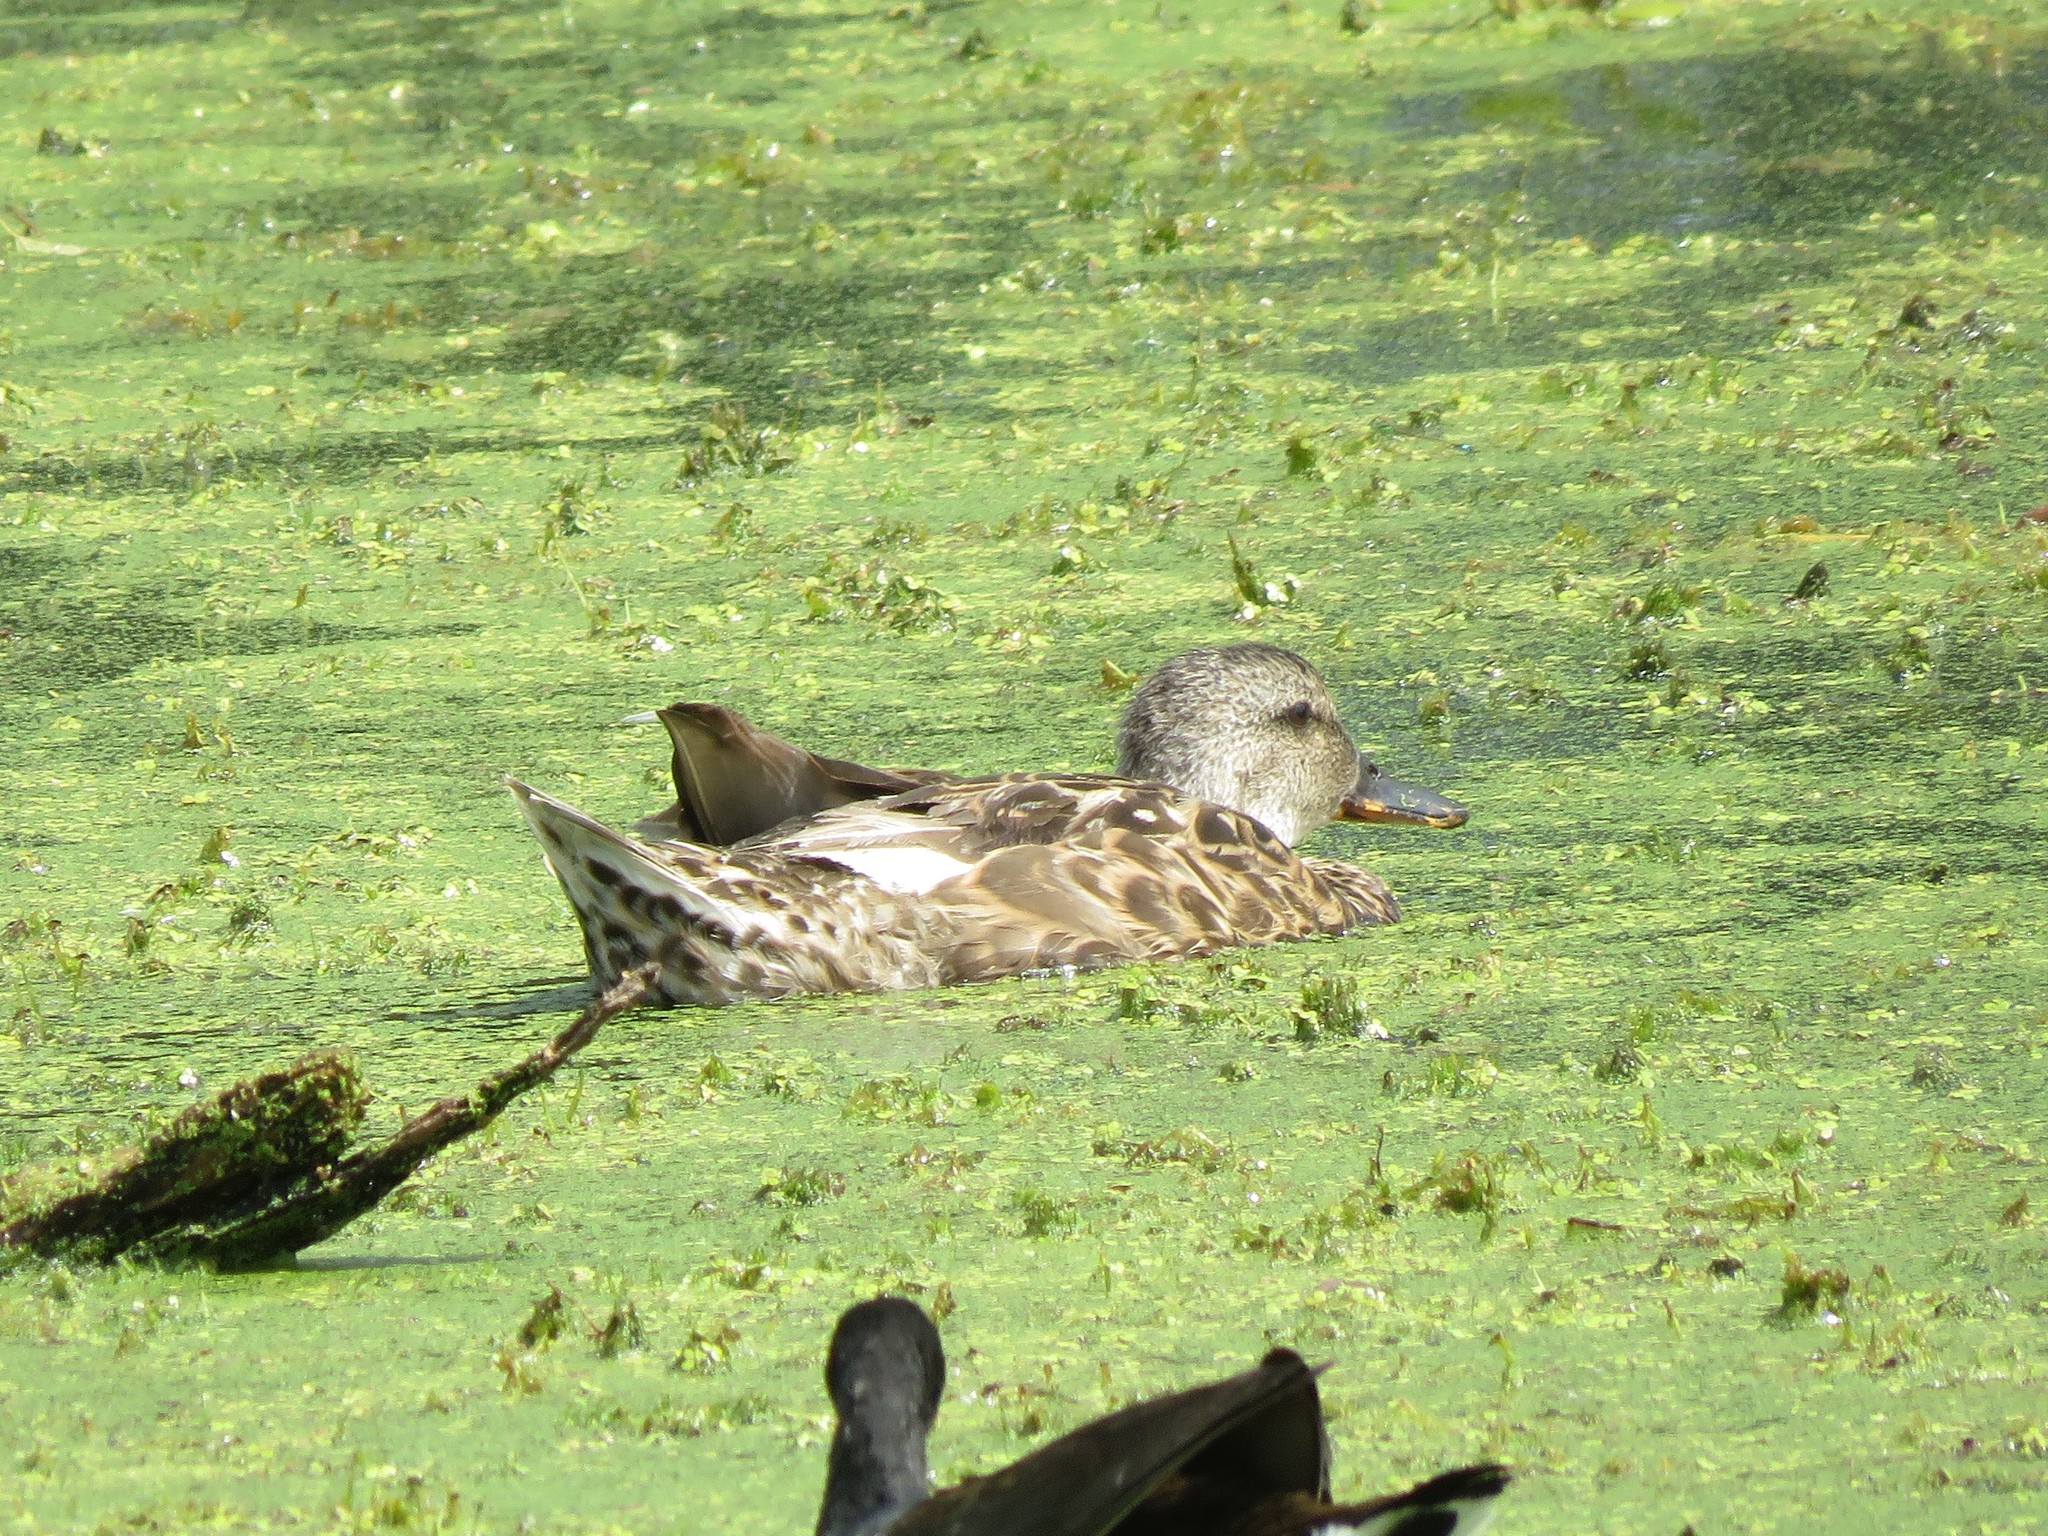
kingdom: Animalia
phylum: Chordata
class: Aves
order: Anseriformes
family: Anatidae
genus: Mareca
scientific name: Mareca strepera
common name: Gadwall
